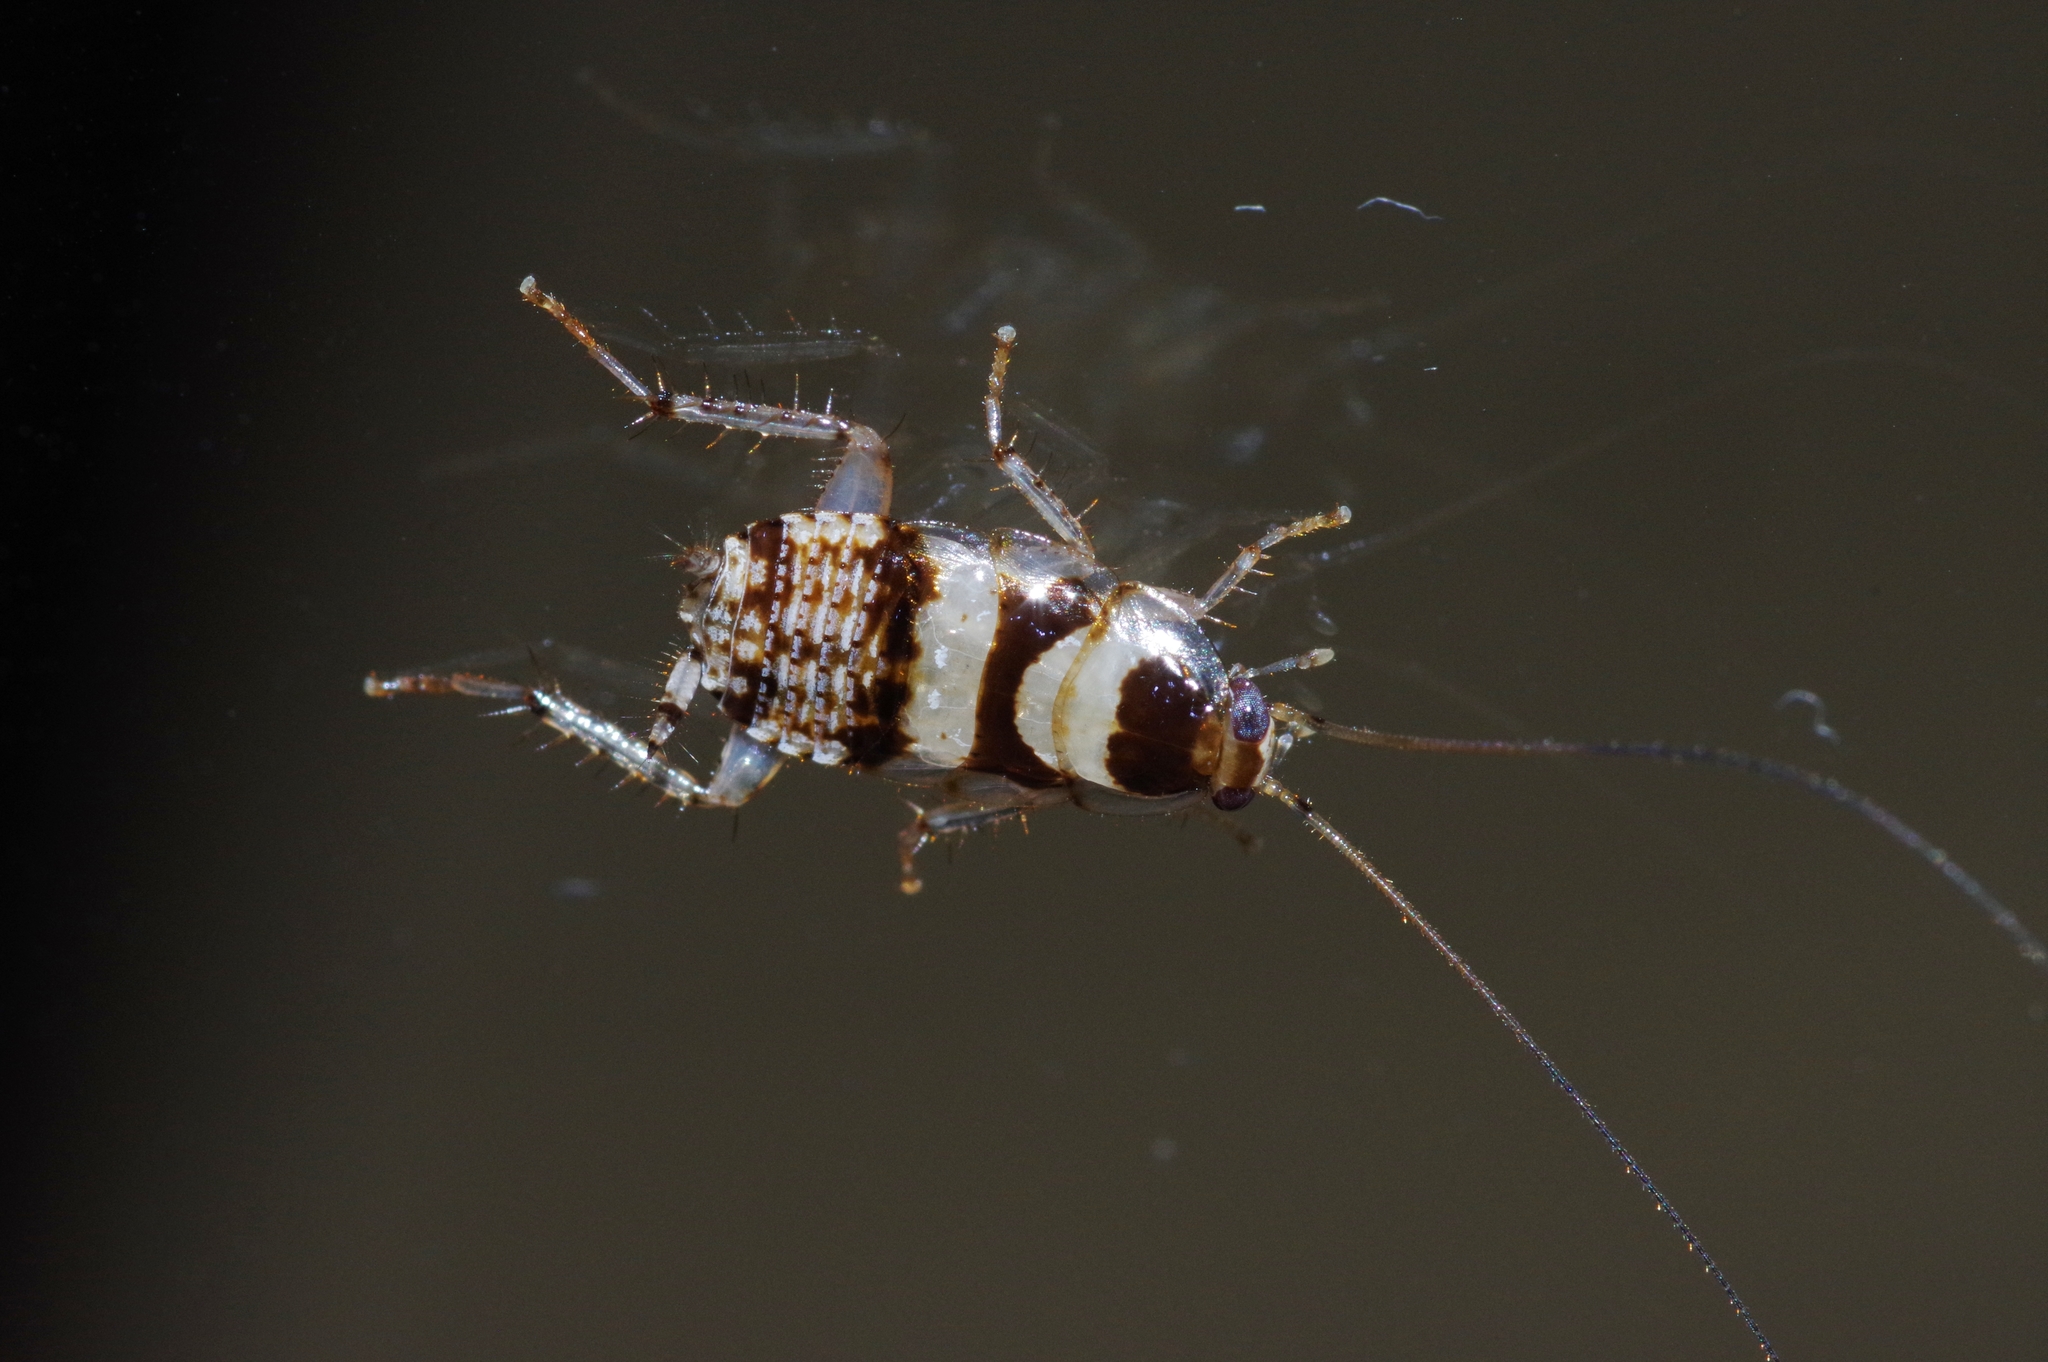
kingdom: Animalia
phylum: Arthropoda
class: Insecta
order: Blattodea
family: Ectobiidae
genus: Balta
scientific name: Balta notulata
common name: Cockroach
